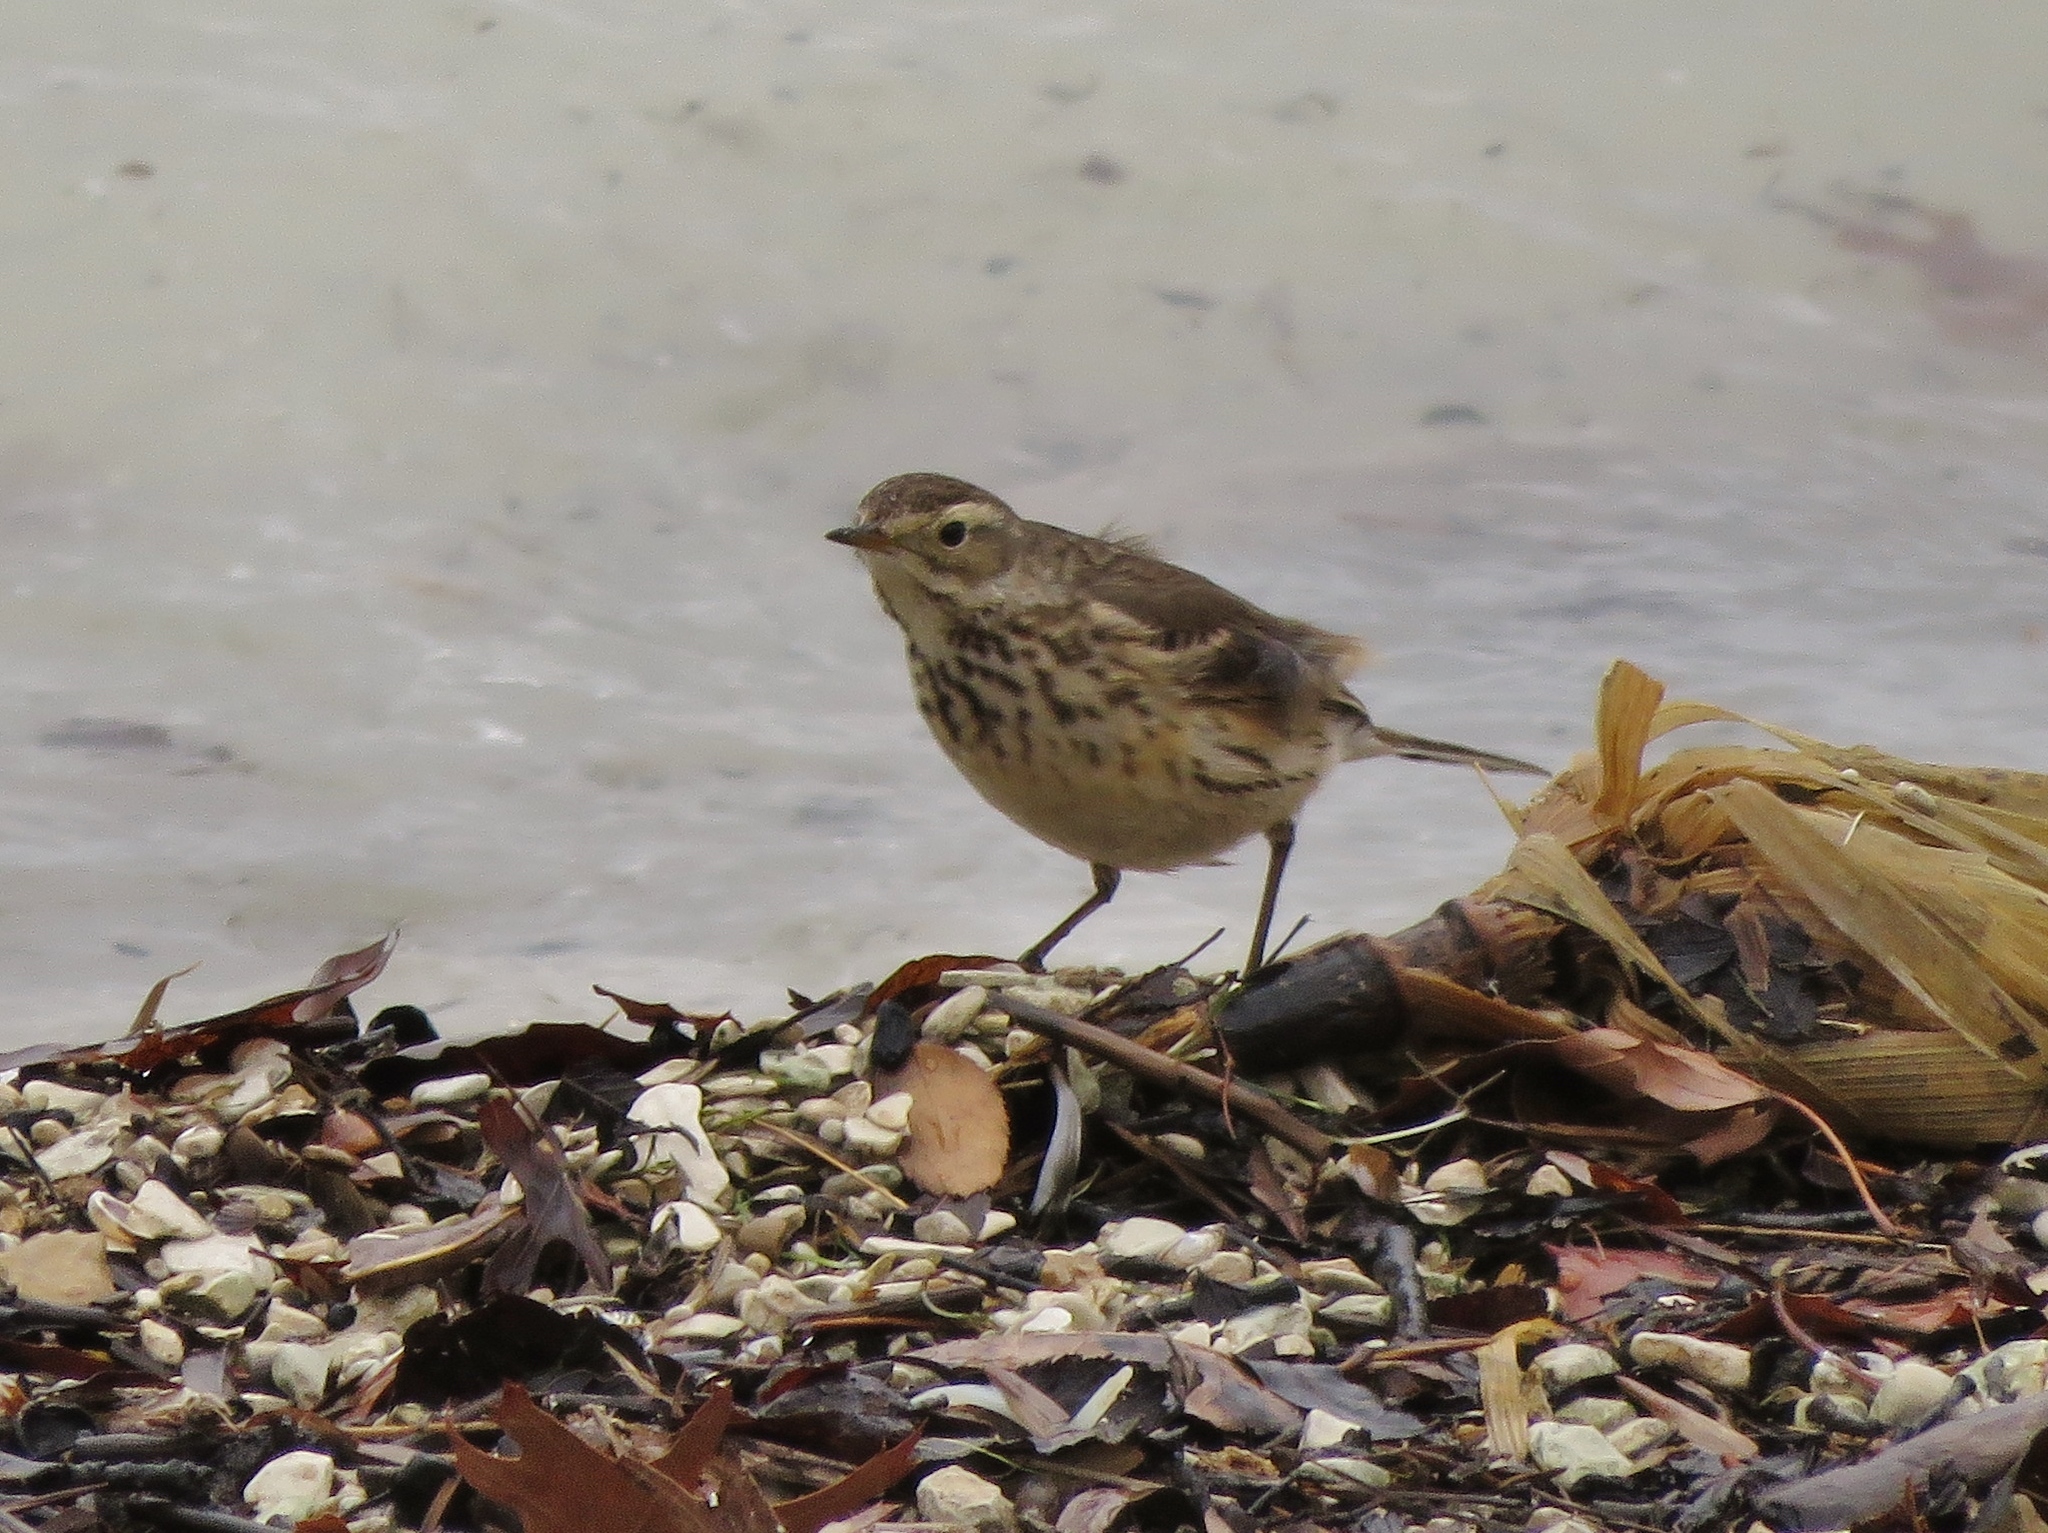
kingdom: Animalia
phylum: Chordata
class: Aves
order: Passeriformes
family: Motacillidae
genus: Anthus
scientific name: Anthus rubescens
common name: Buff-bellied pipit
